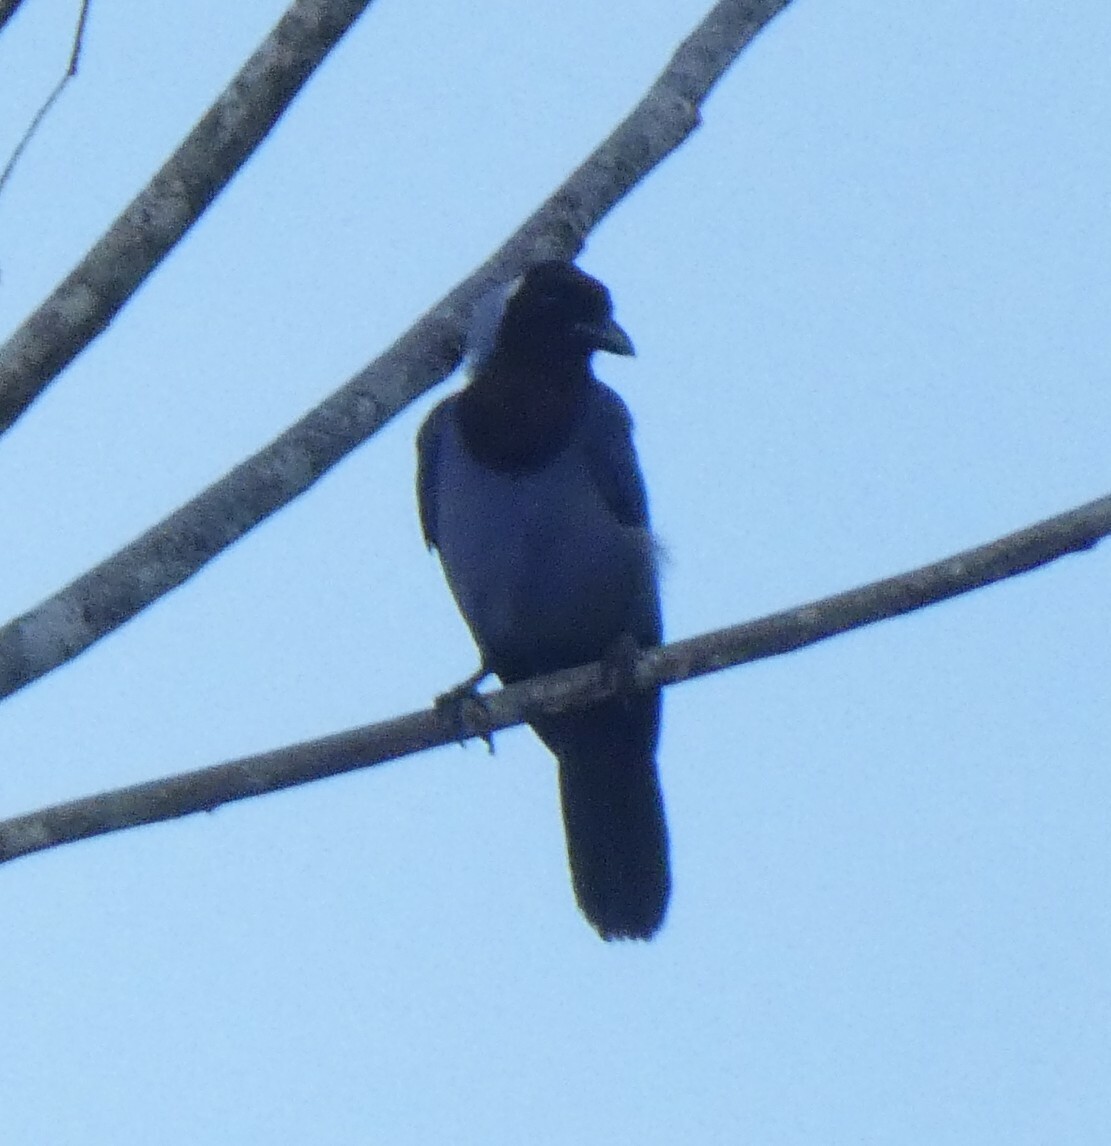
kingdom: Animalia
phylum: Chordata
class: Aves
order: Passeriformes
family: Corvidae
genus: Cyanocorax
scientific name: Cyanocorax violaceus
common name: Violaceous jay
